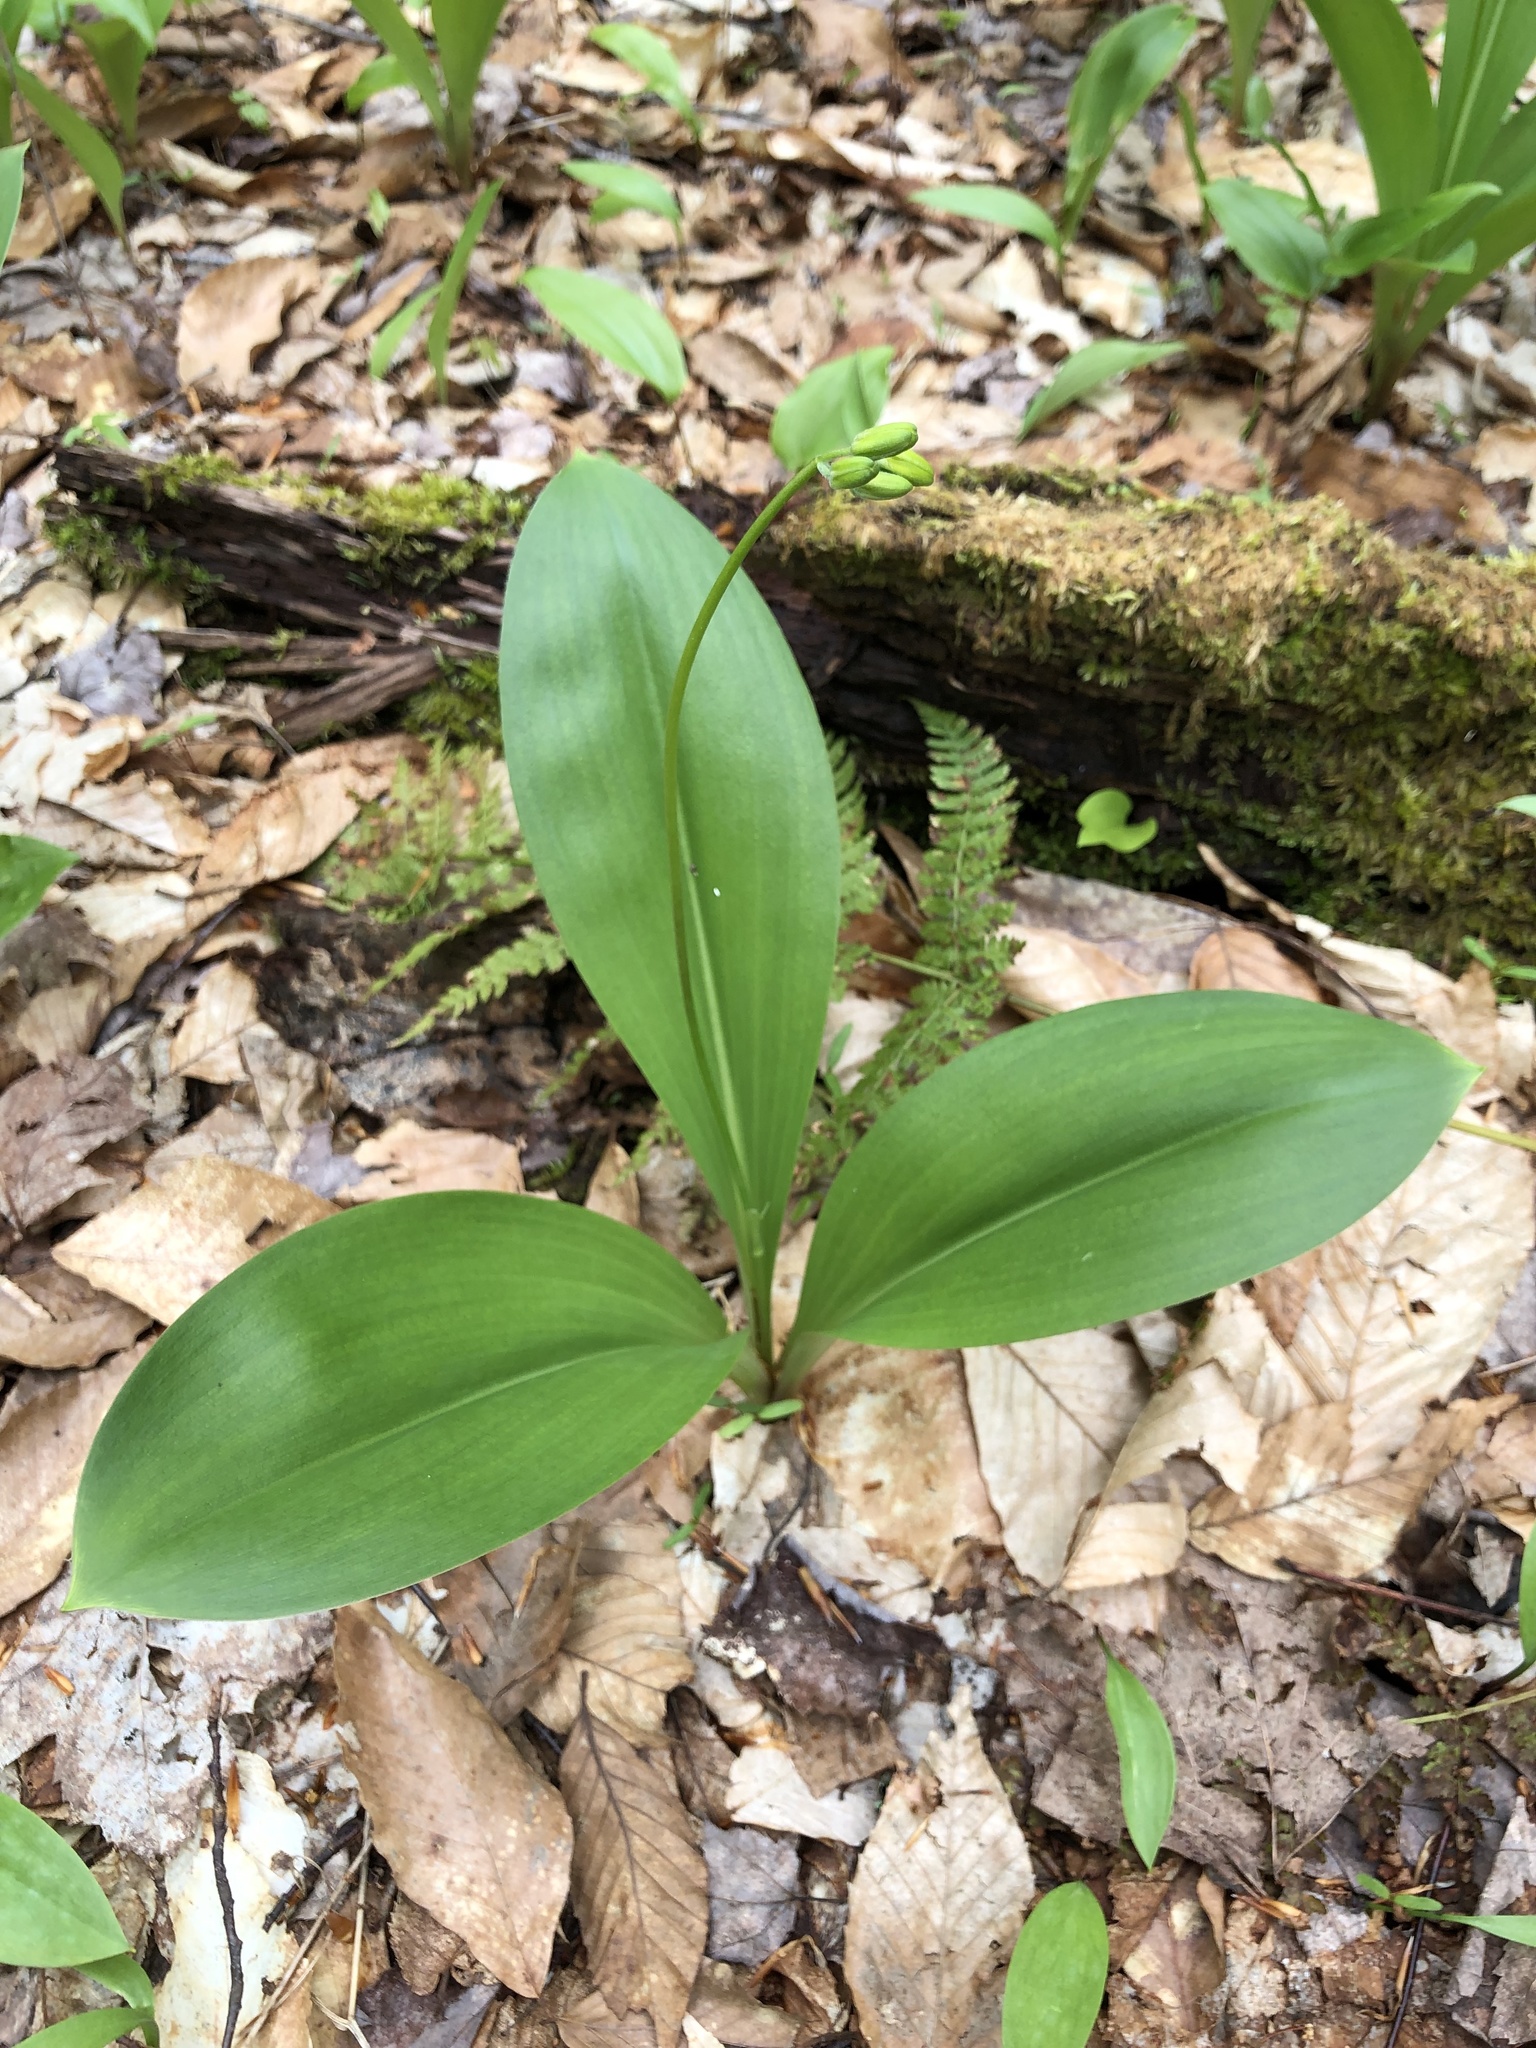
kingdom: Plantae
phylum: Tracheophyta
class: Liliopsida
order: Liliales
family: Liliaceae
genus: Clintonia
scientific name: Clintonia borealis
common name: Yellow clintonia
